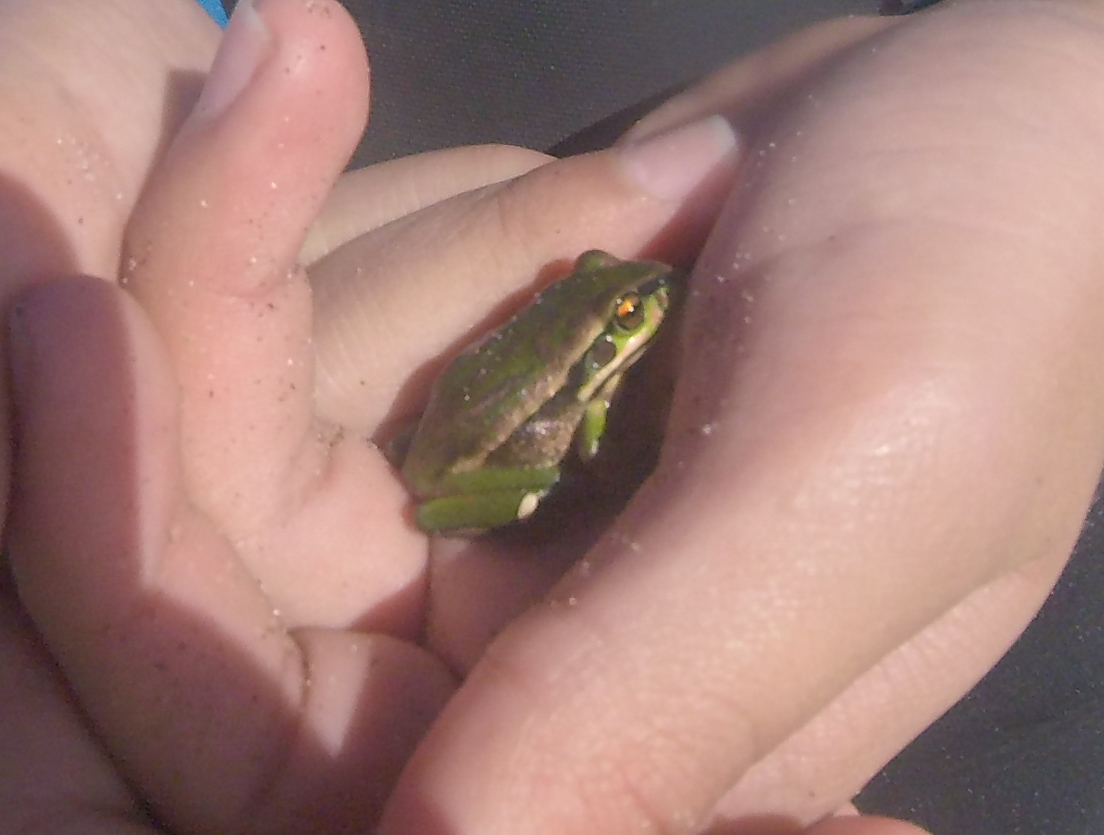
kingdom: Animalia
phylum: Chordata
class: Amphibia
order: Anura
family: Pelodryadidae
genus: Ranoidea
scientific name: Ranoidea aurea
